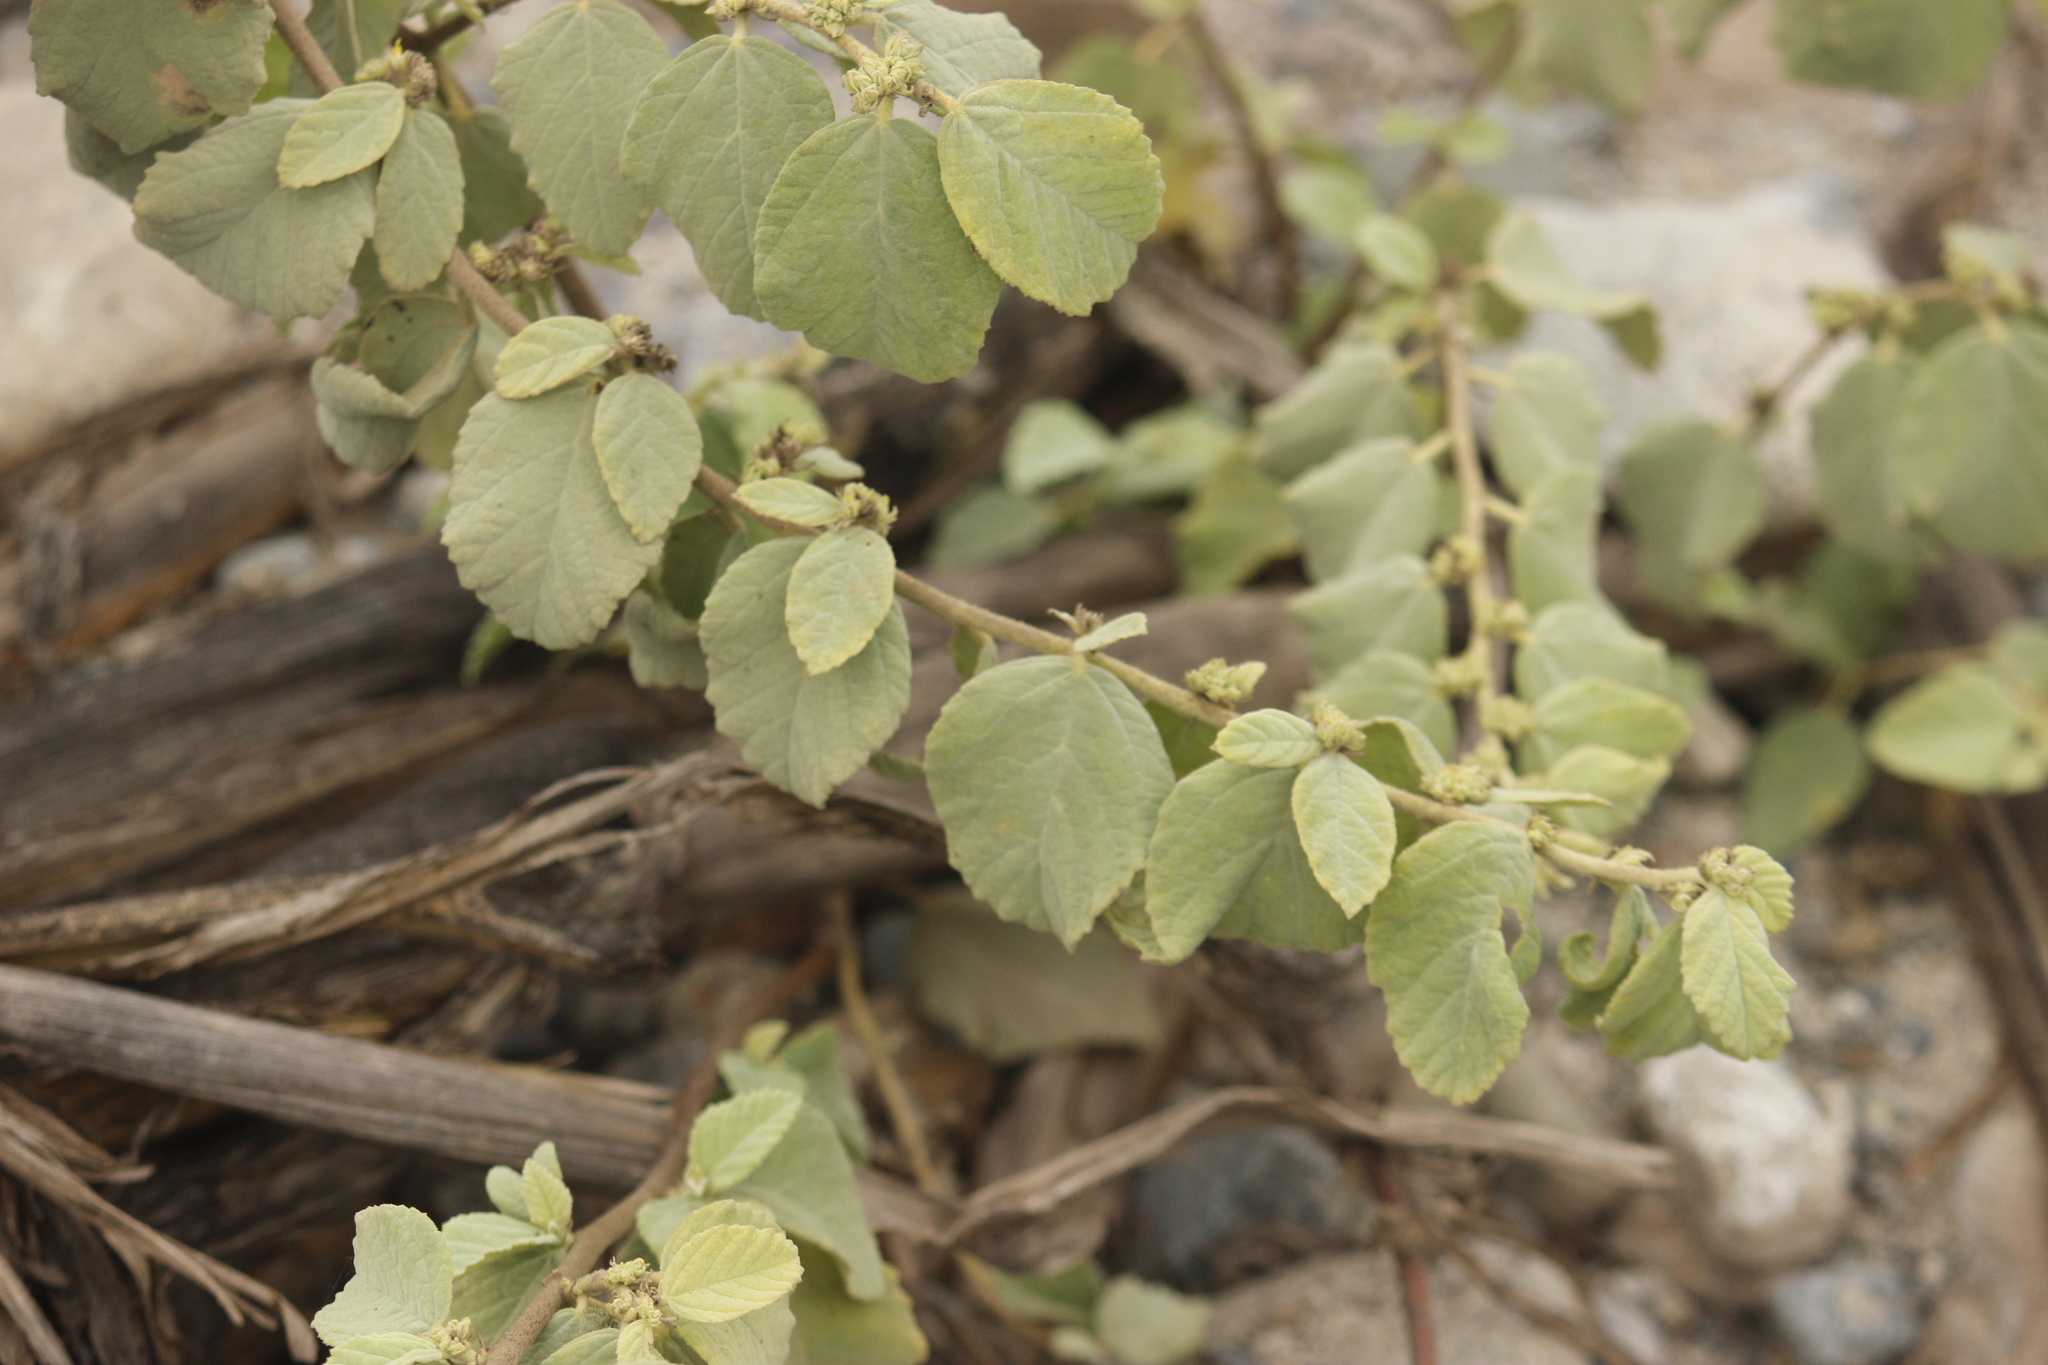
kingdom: Plantae
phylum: Tracheophyta
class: Magnoliopsida
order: Malvales
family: Malvaceae
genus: Waltheria
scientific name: Waltheria ovata
